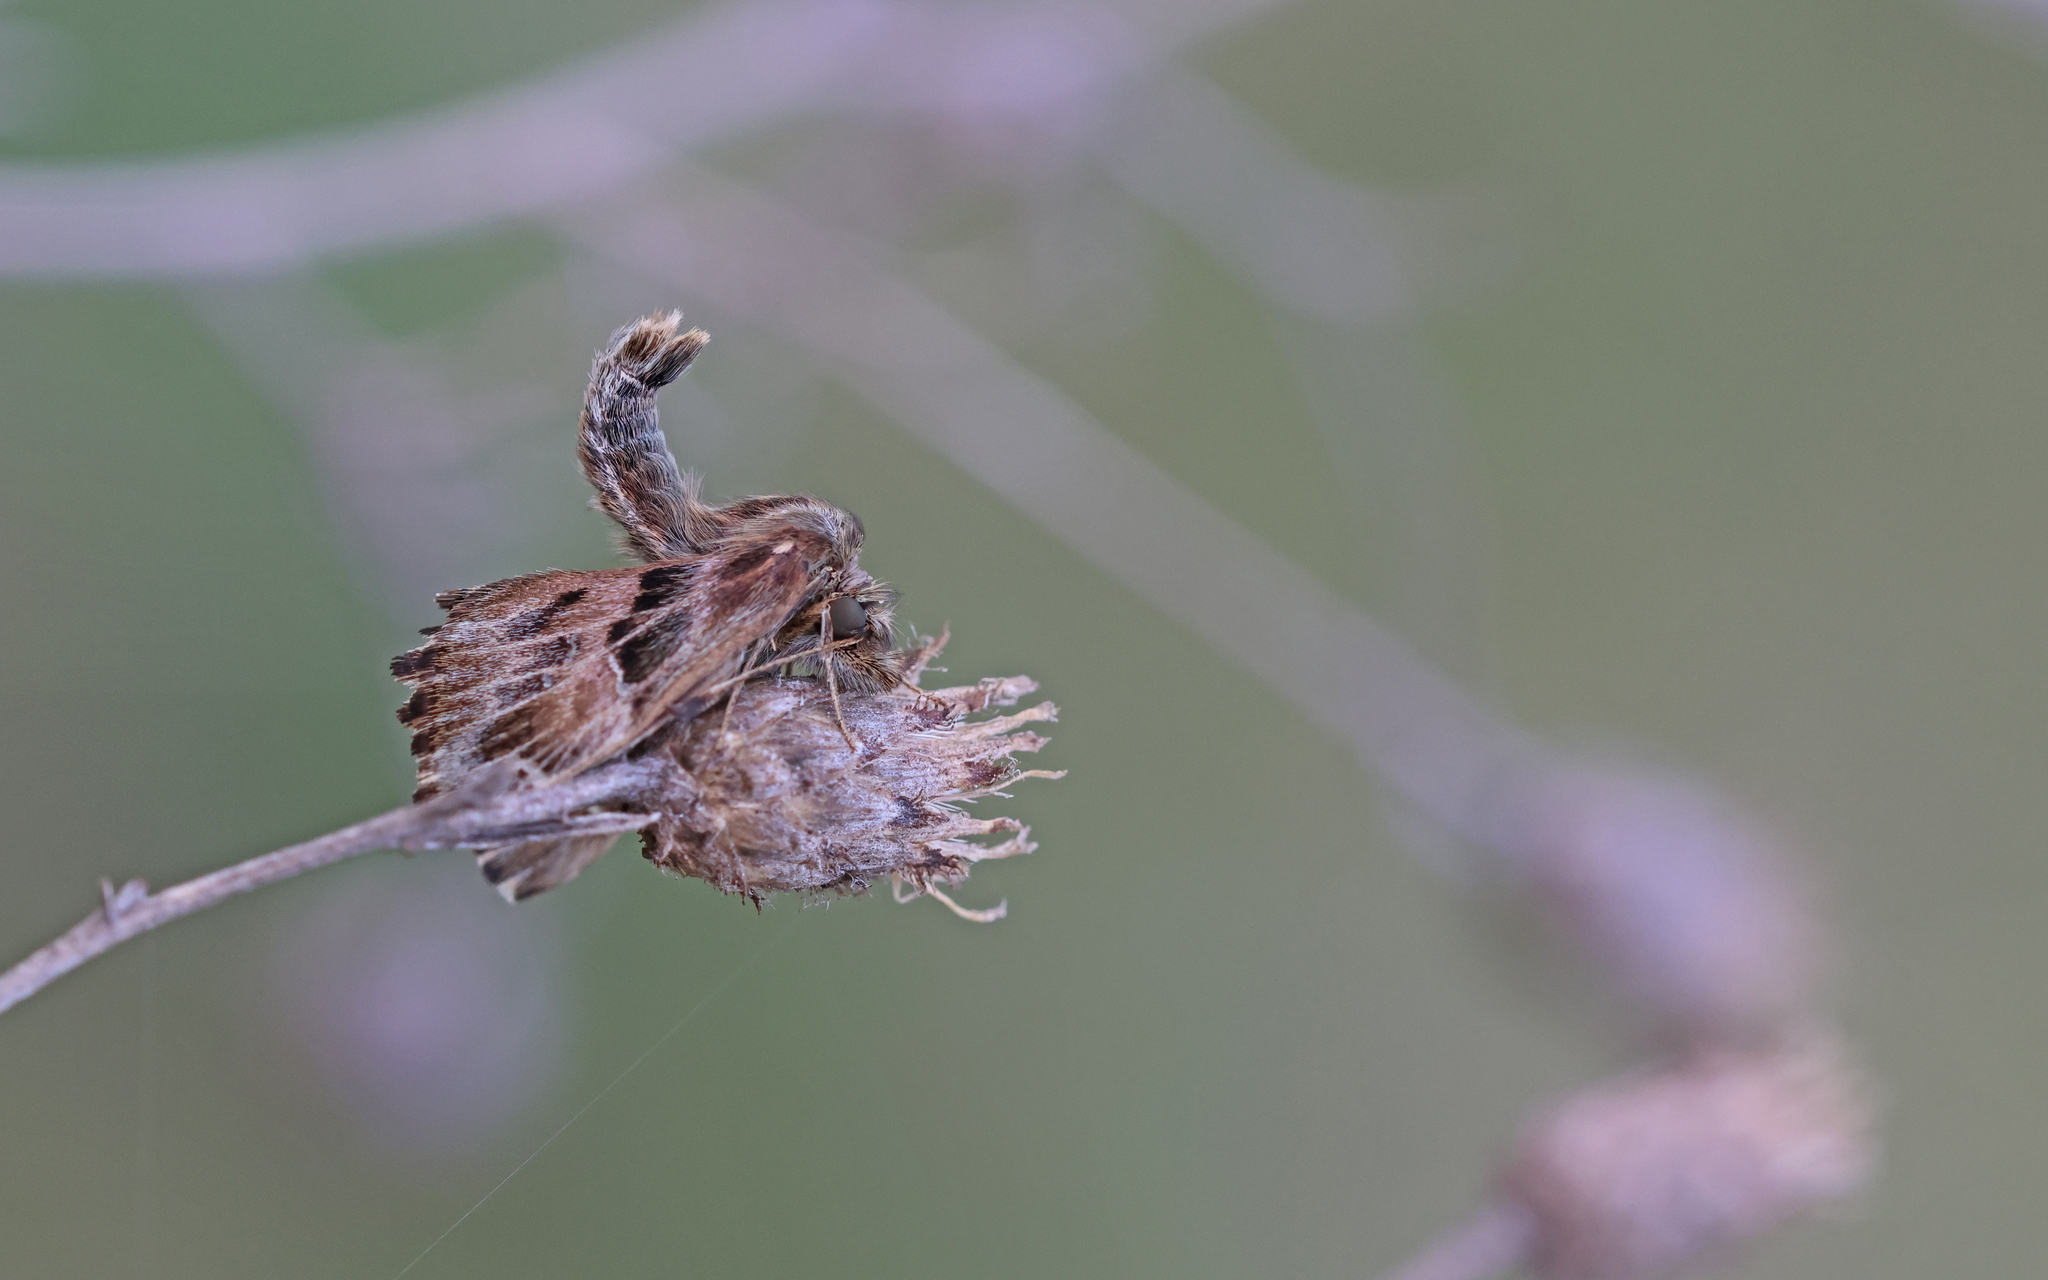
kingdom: Animalia
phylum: Arthropoda
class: Insecta
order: Lepidoptera
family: Hesperiidae
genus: Carcharodus
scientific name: Carcharodus alceae
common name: Mallow skipper
